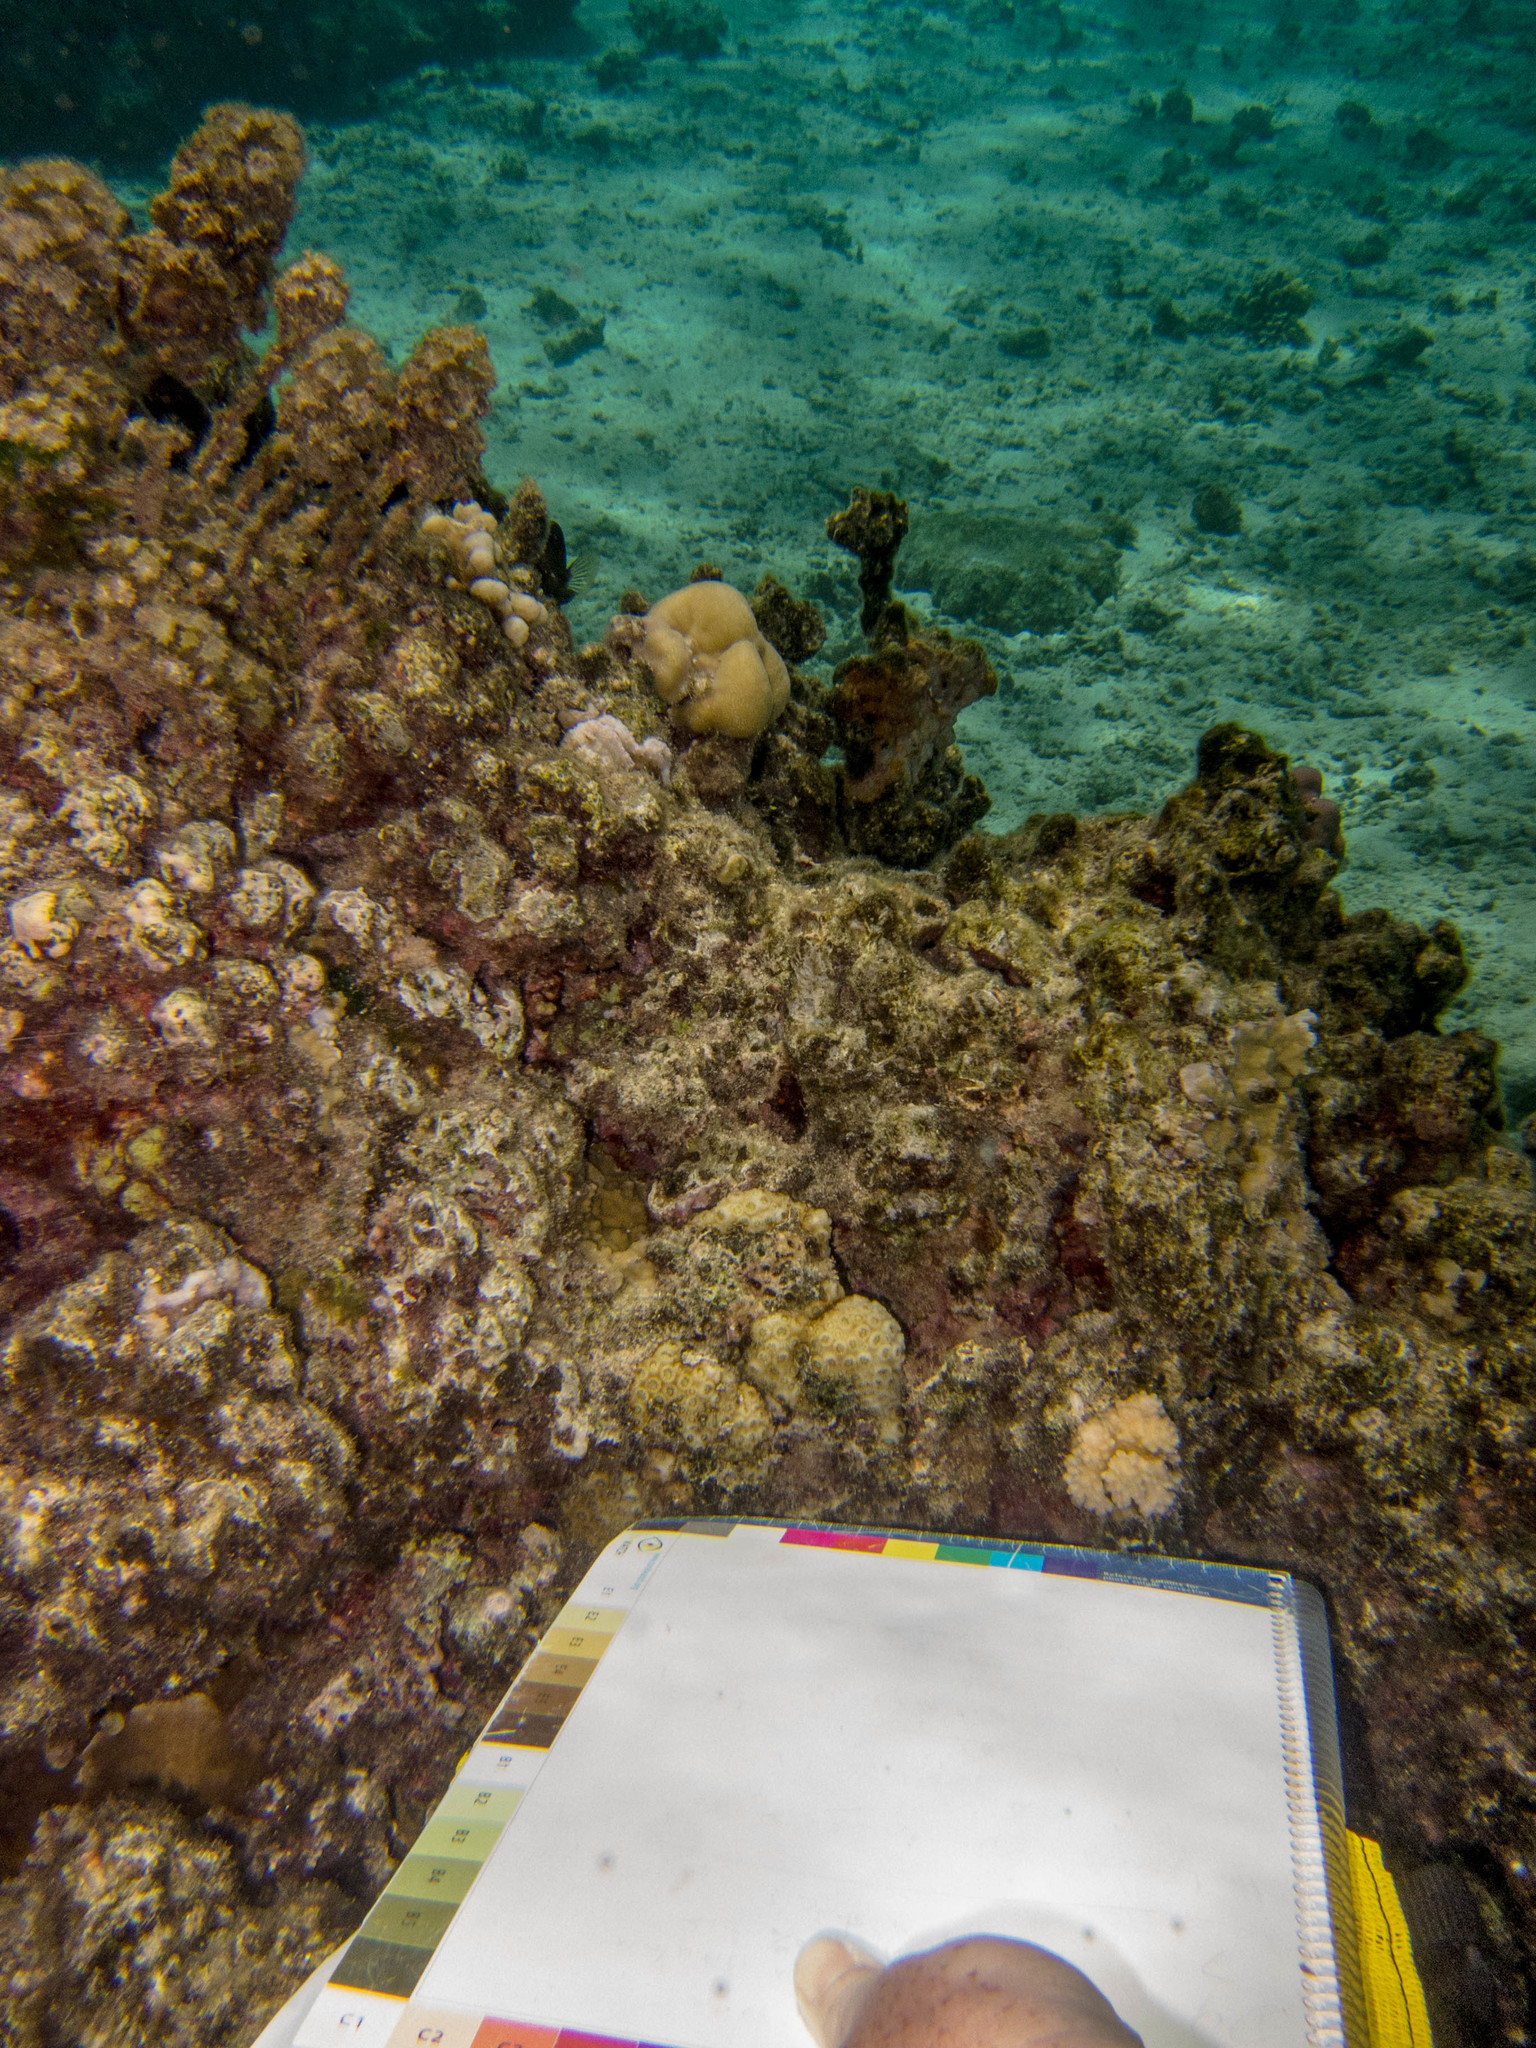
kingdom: Animalia
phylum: Cnidaria
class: Anthozoa
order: Scleractinia
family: Merulinidae
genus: Astrea
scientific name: Astrea curta
